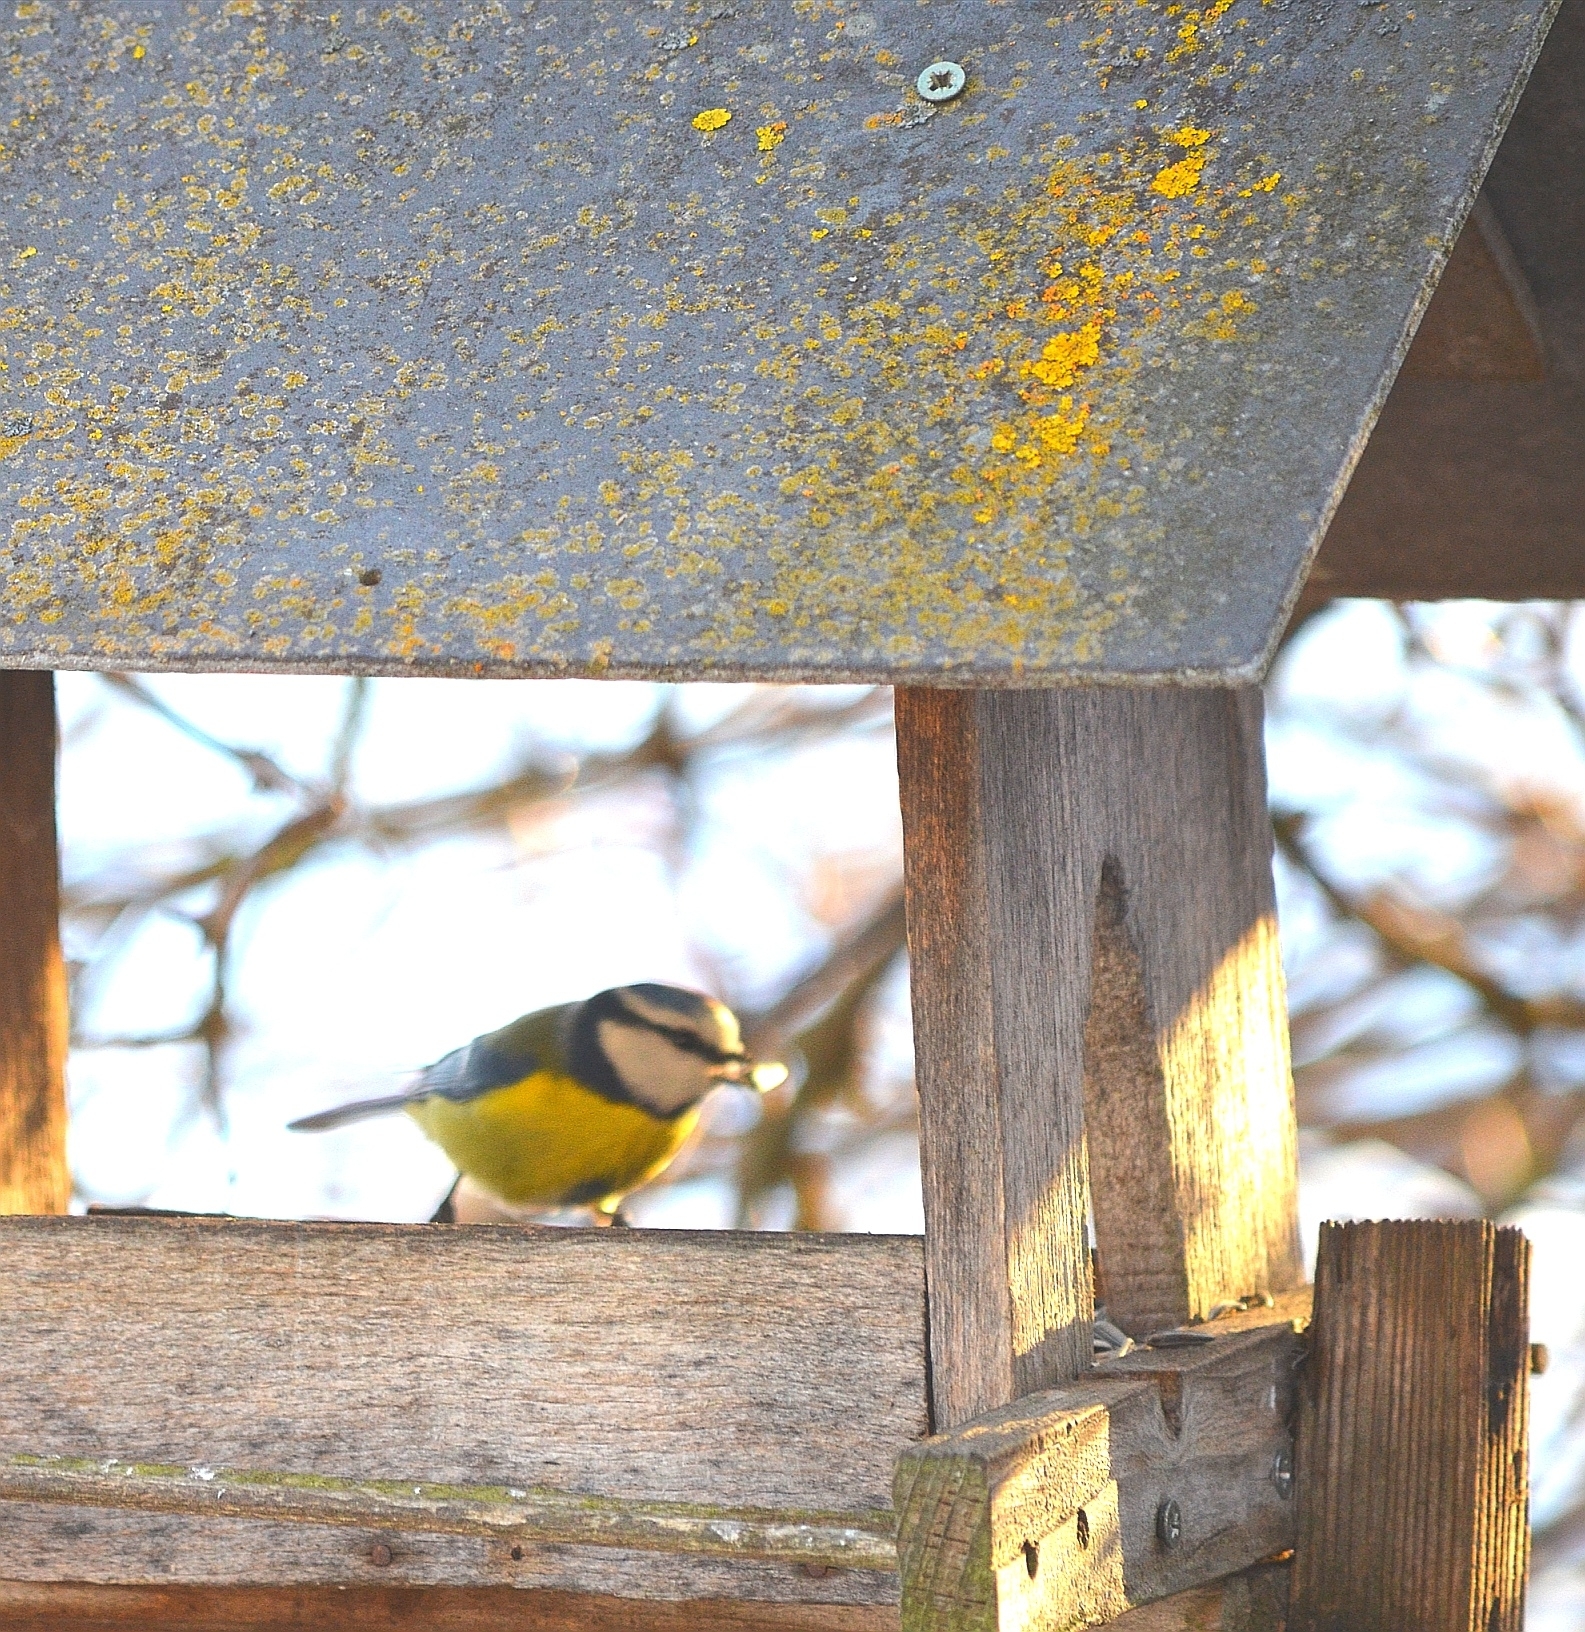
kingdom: Animalia
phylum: Chordata
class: Aves
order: Passeriformes
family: Paridae
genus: Cyanistes
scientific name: Cyanistes caeruleus
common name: Eurasian blue tit
